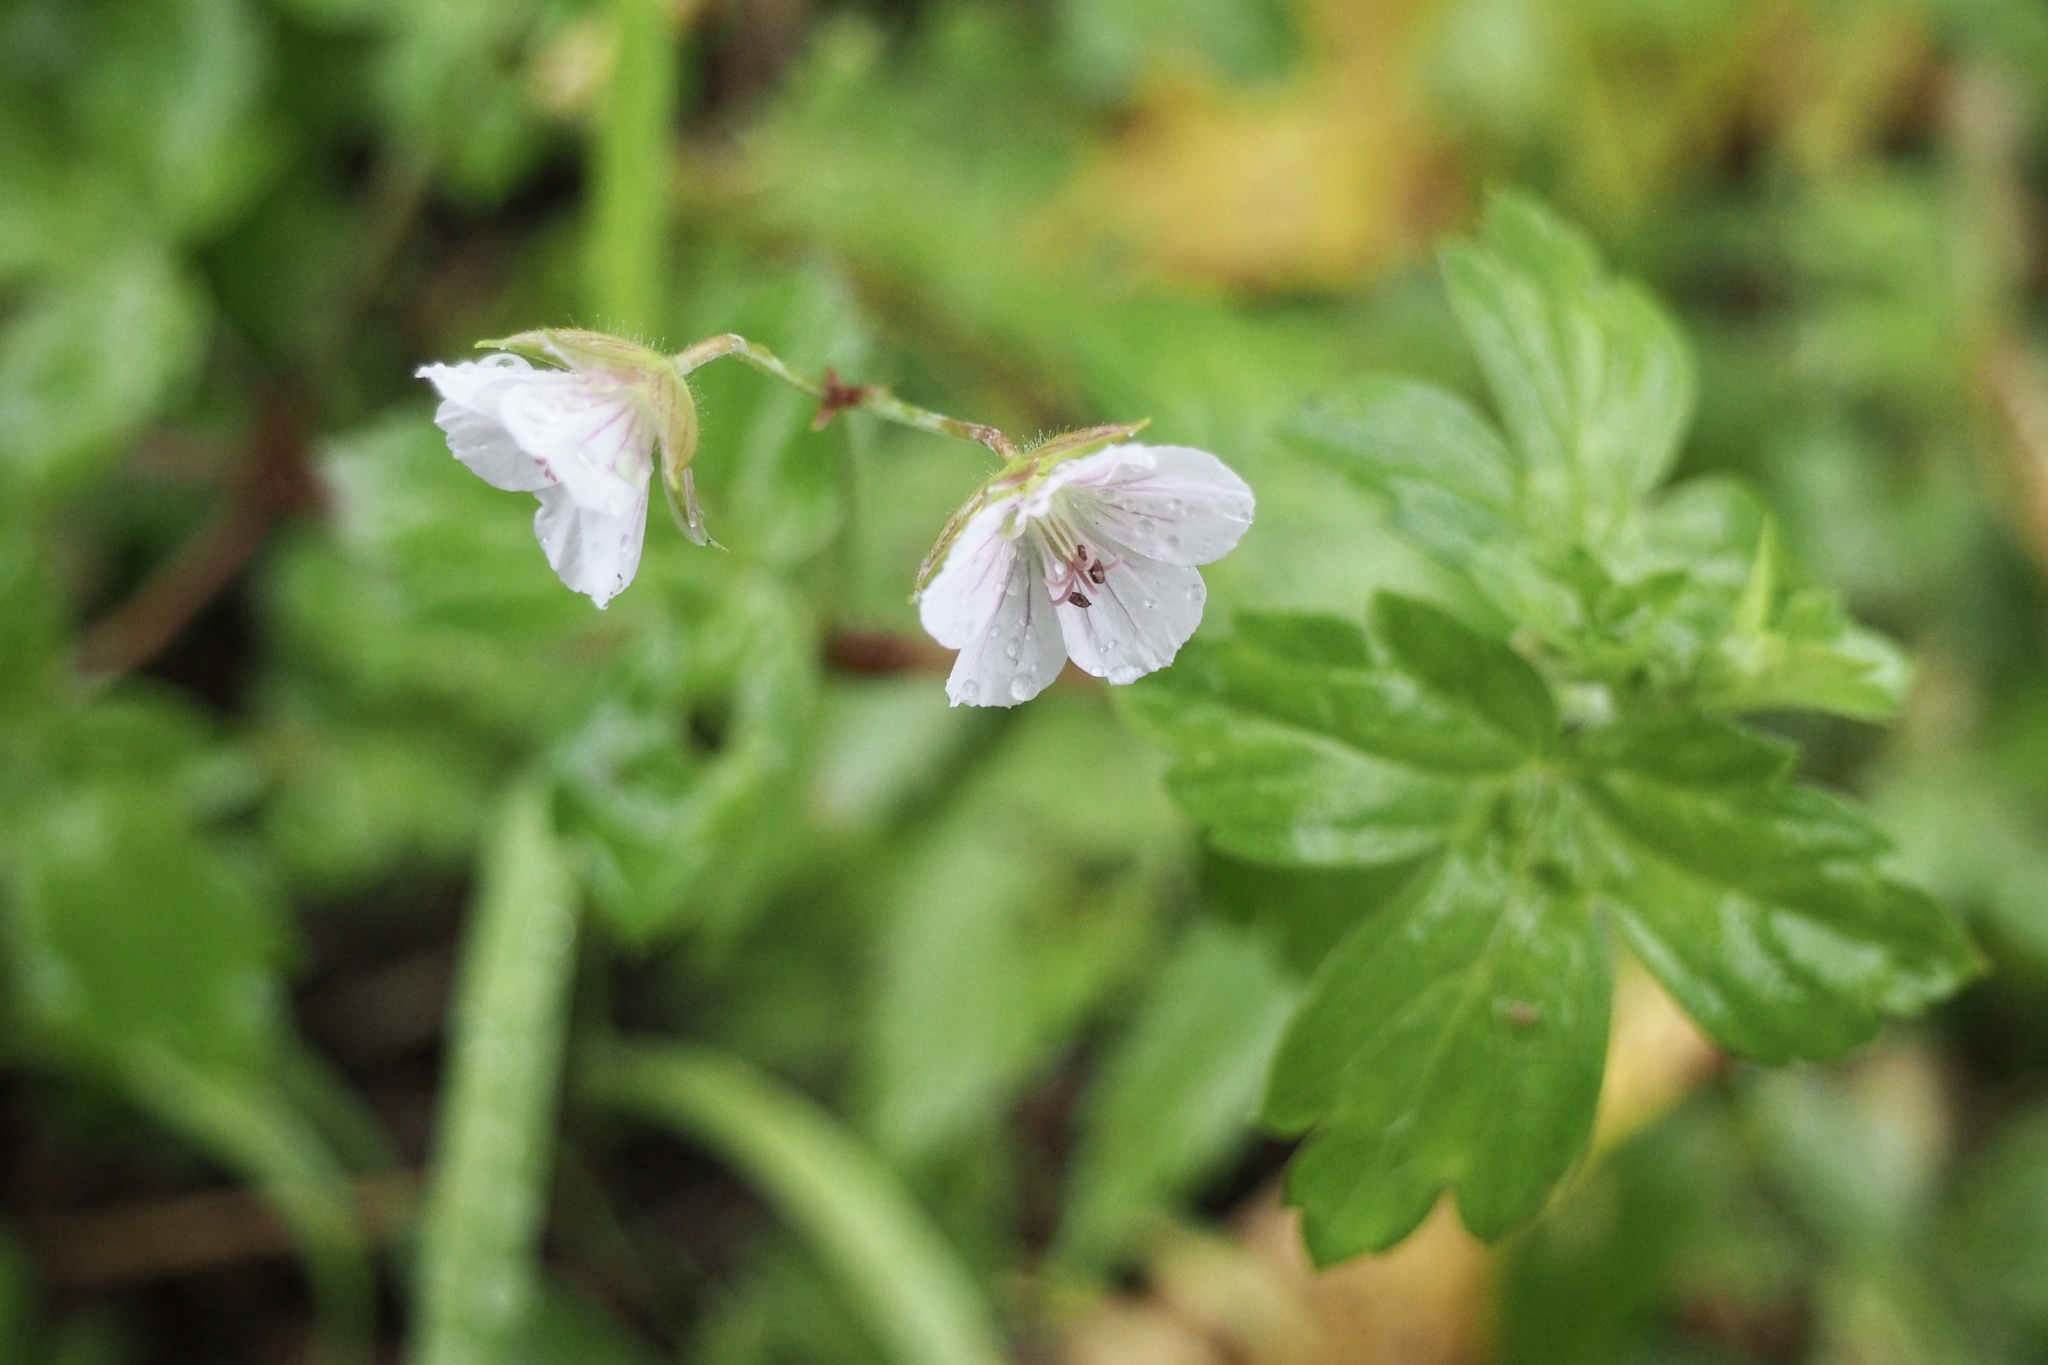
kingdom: Plantae
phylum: Tracheophyta
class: Magnoliopsida
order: Geraniales
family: Geraniaceae
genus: Geranium
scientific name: Geranium thunbergii
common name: Dewdrop crane's-bill
